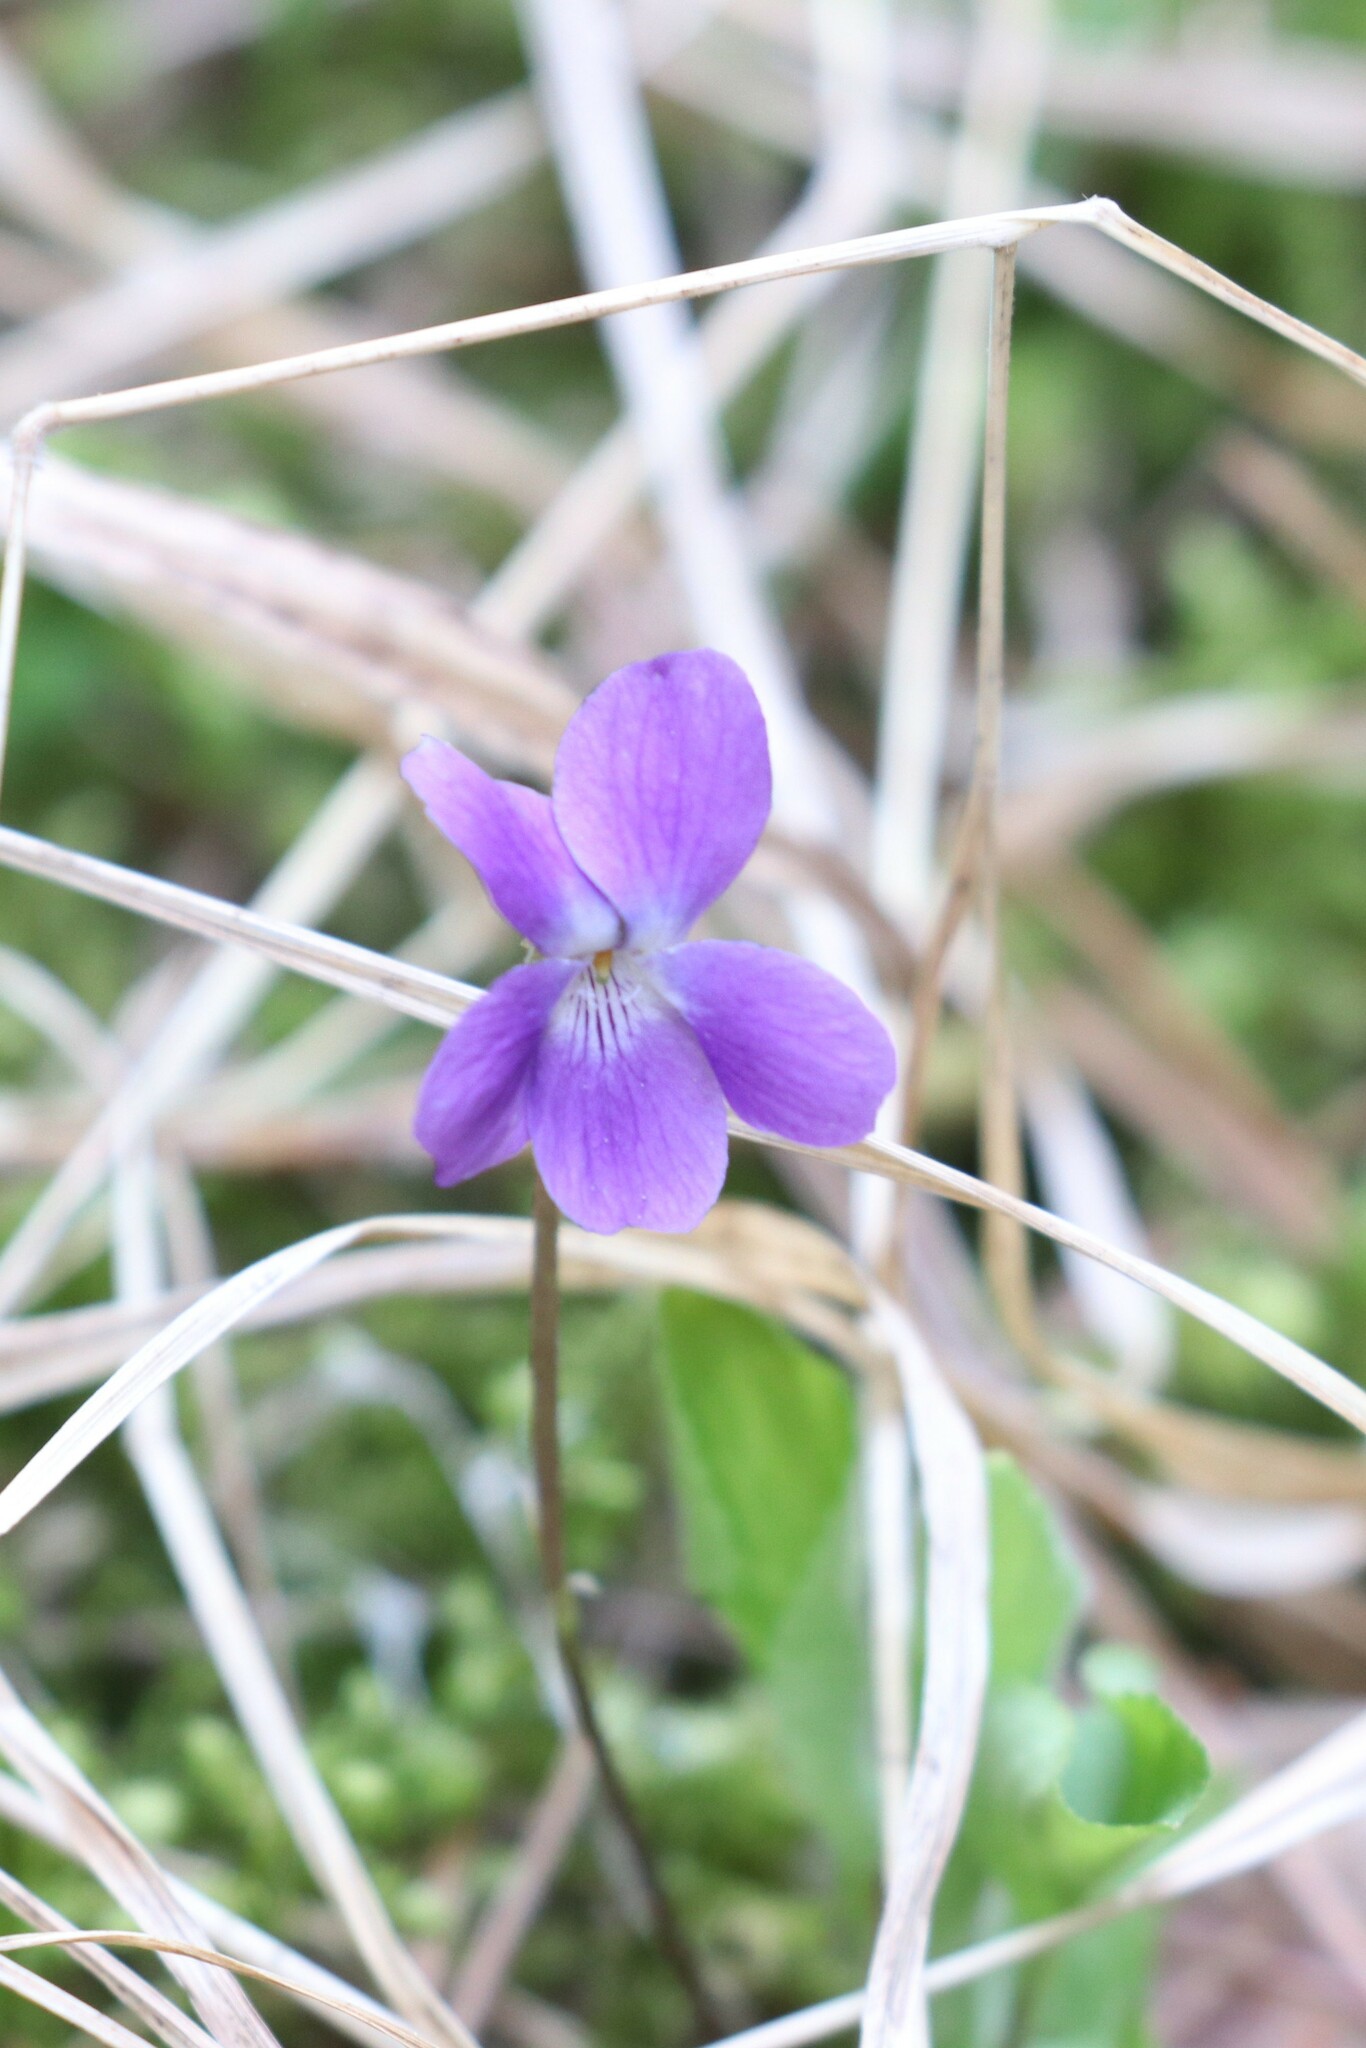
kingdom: Plantae
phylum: Tracheophyta
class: Magnoliopsida
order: Malpighiales
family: Violaceae
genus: Viola
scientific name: Viola hirta
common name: Hairy violet
